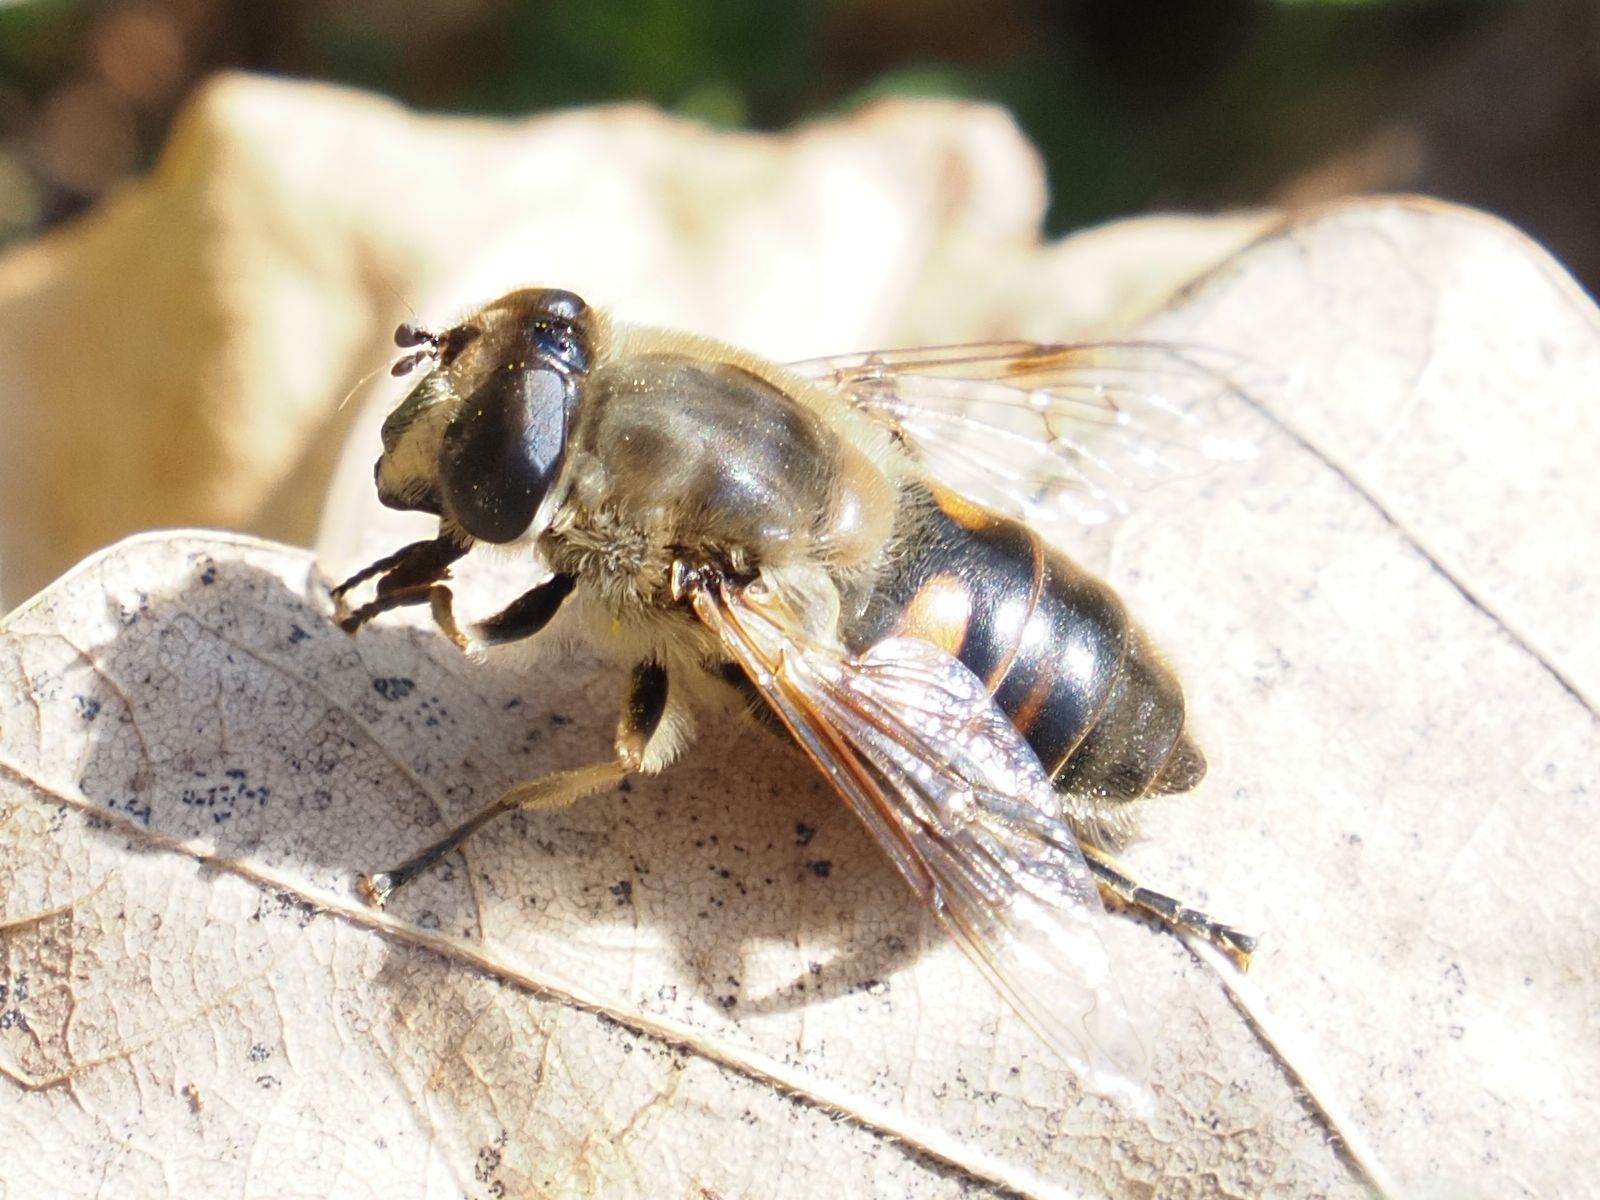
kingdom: Animalia
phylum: Arthropoda
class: Insecta
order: Diptera
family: Syrphidae
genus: Eristalis
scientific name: Eristalis tenax
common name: Drone fly
